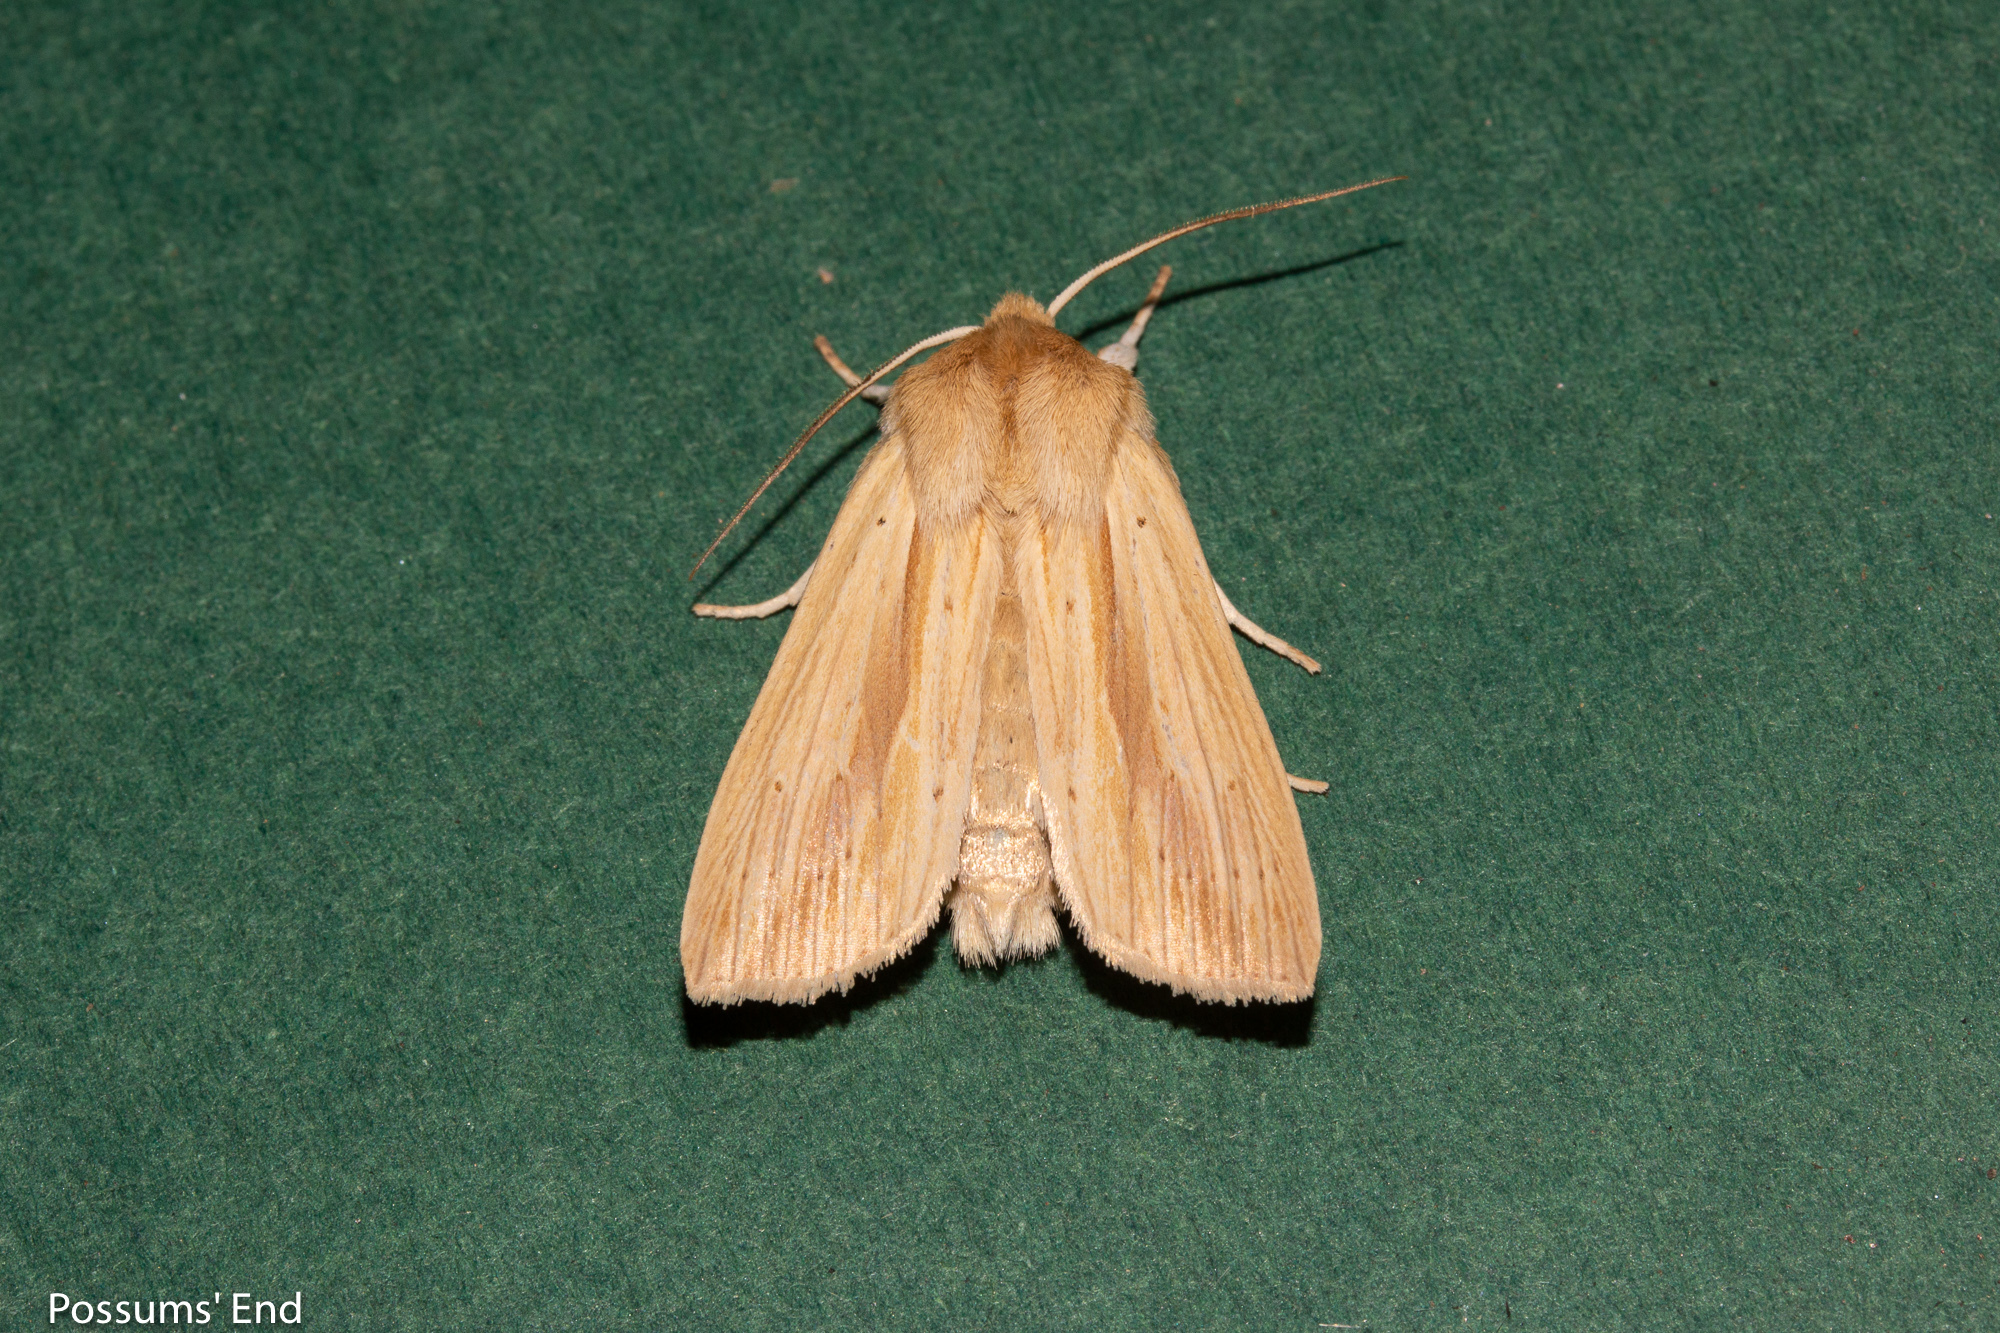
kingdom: Animalia
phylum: Arthropoda
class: Insecta
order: Lepidoptera
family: Noctuidae
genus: Ichneutica
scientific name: Ichneutica semivittata
